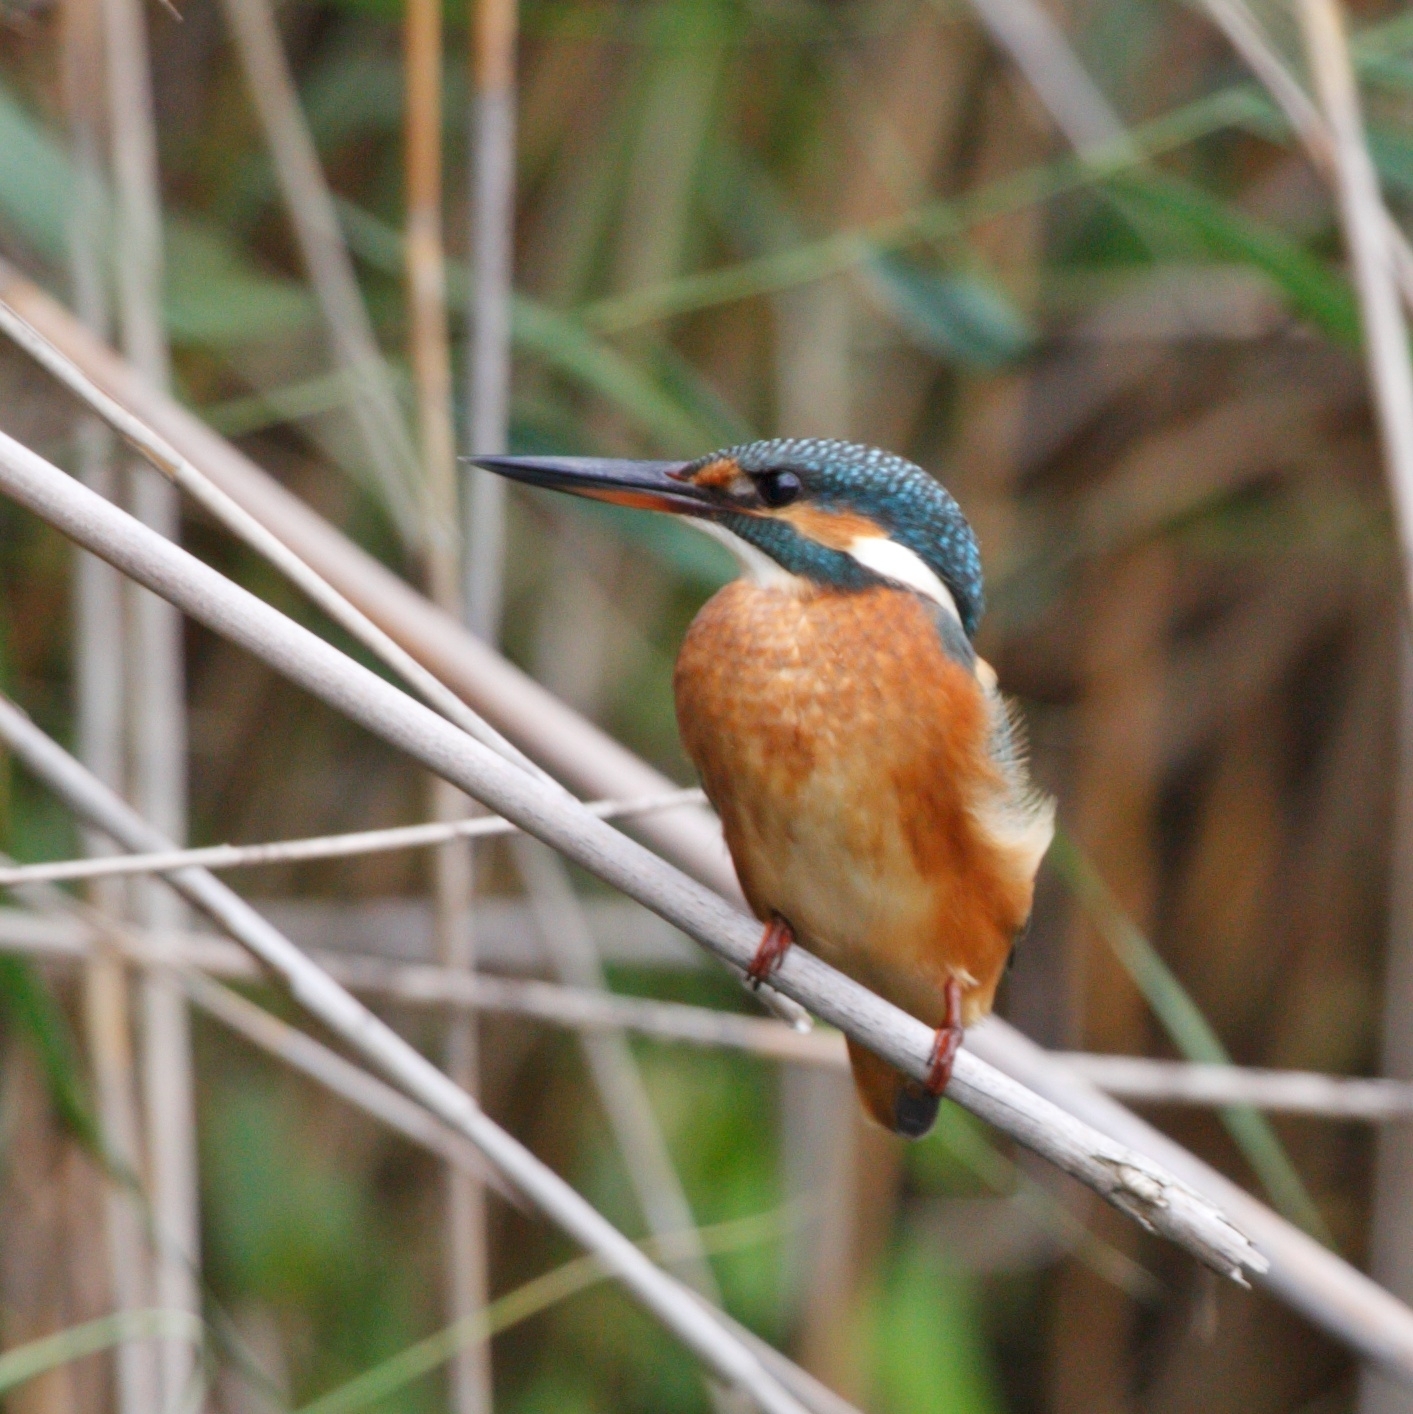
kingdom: Animalia
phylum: Chordata
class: Aves
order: Coraciiformes
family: Alcedinidae
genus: Alcedo
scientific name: Alcedo atthis
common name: Common kingfisher
